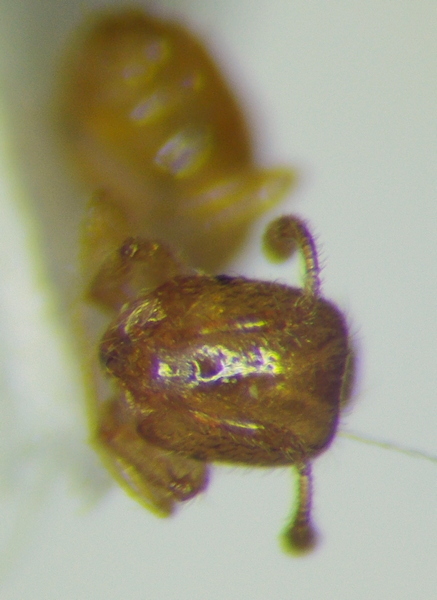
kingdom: Animalia
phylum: Arthropoda
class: Insecta
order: Hymenoptera
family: Formicidae
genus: Solenopsis
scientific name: Solenopsis fugax
